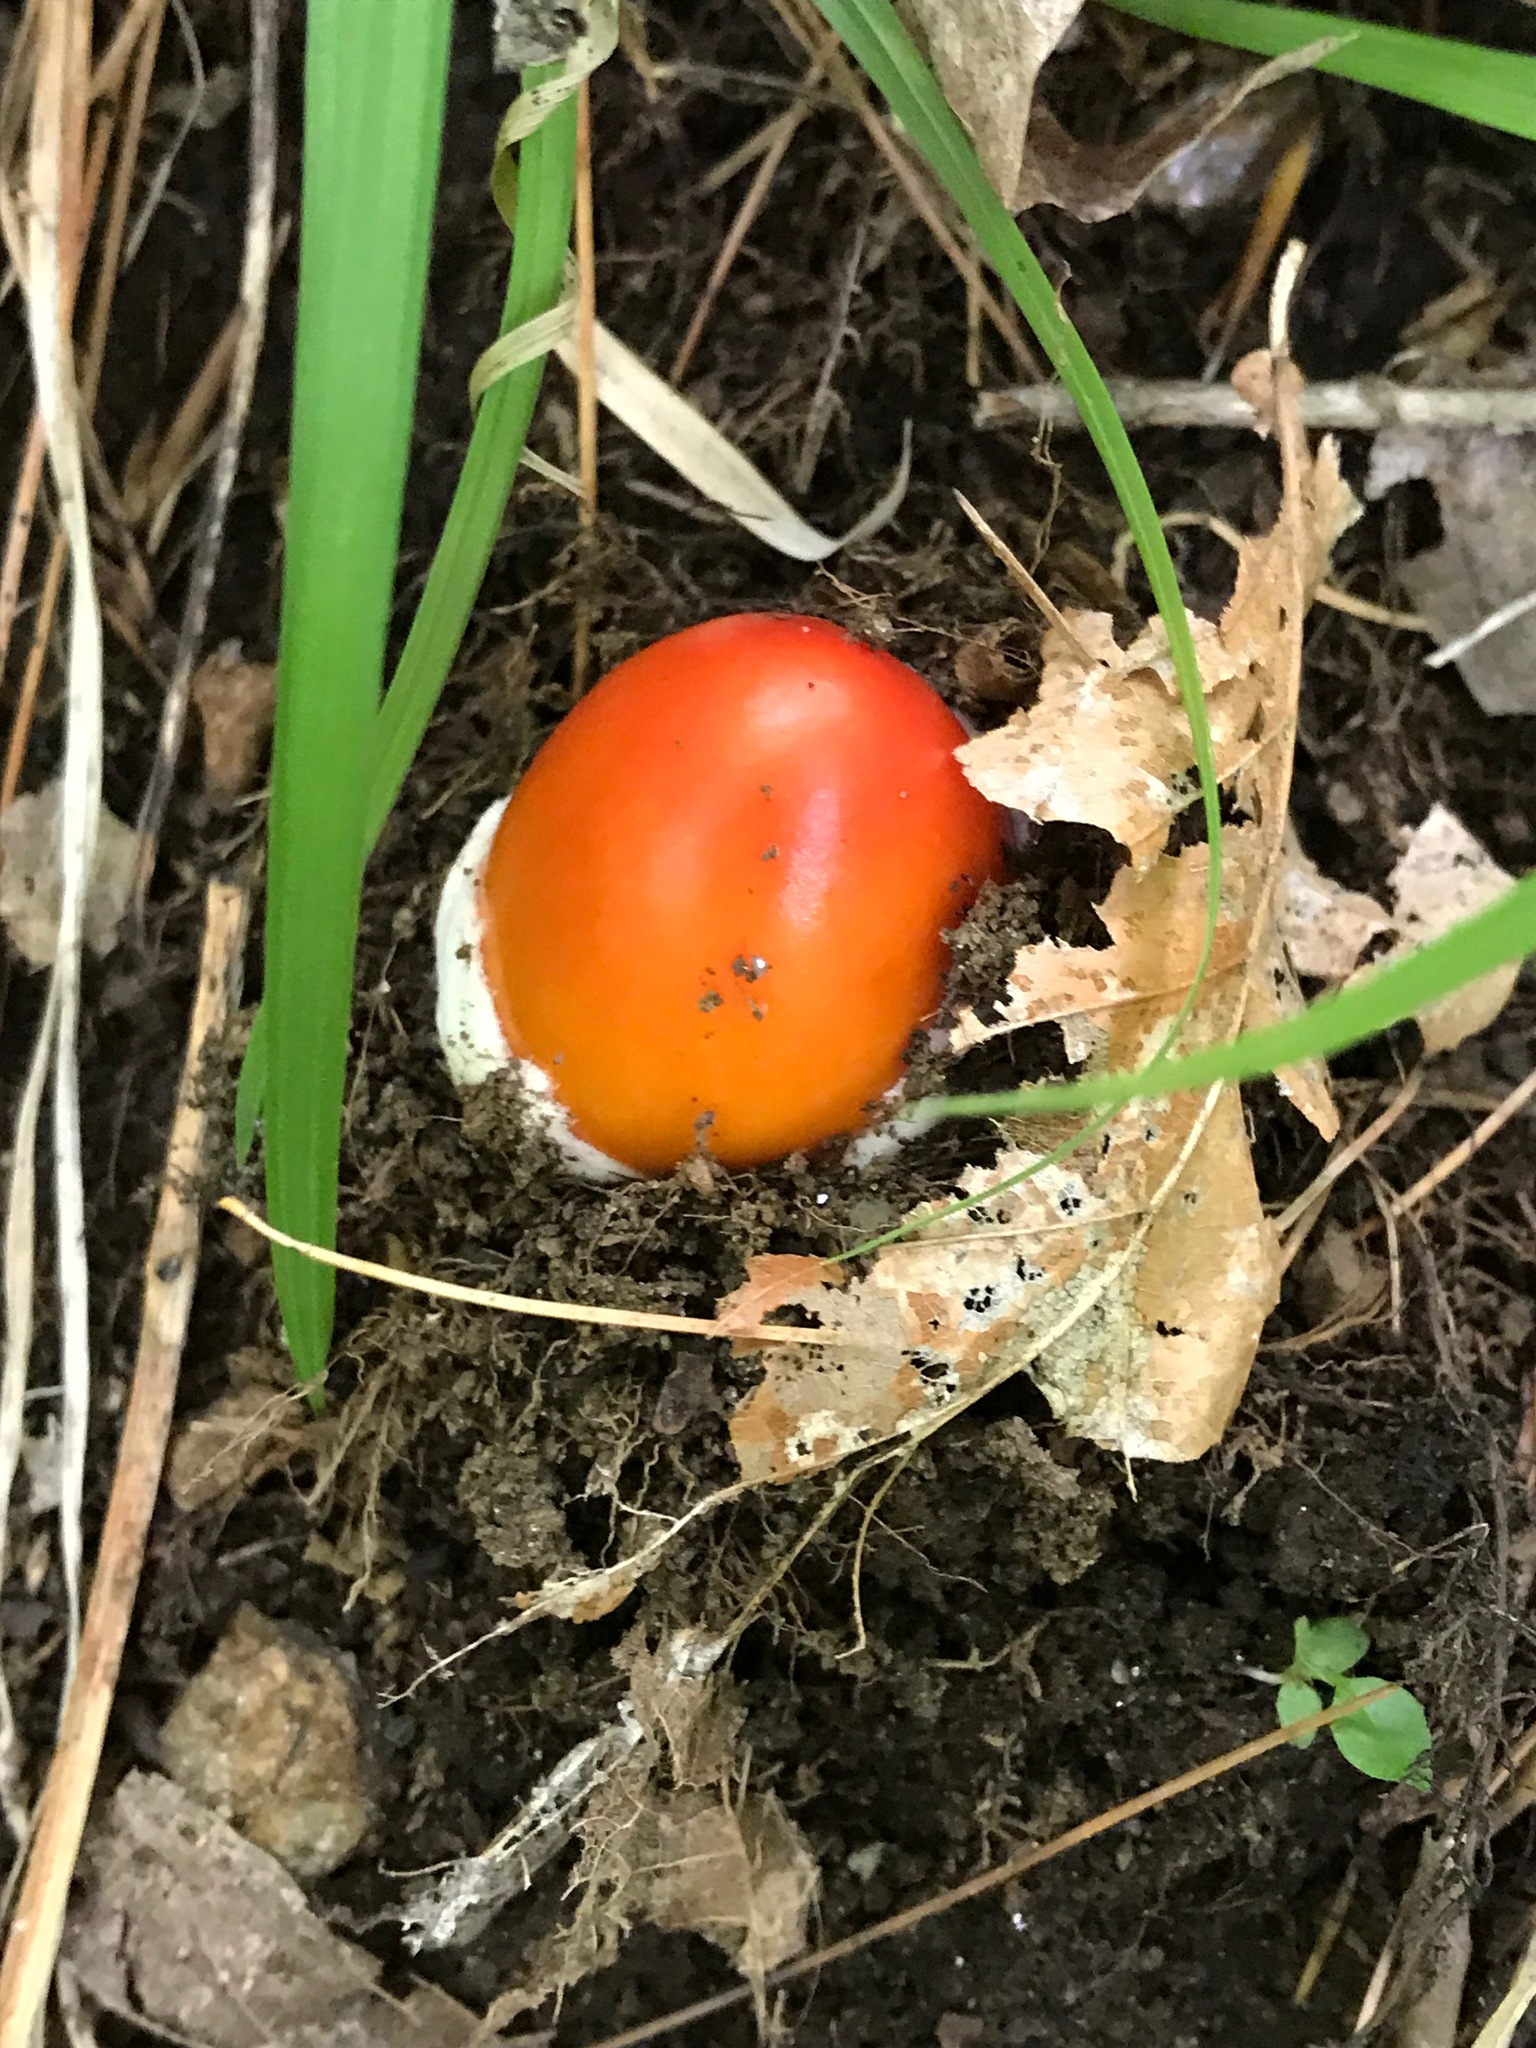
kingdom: Fungi
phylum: Basidiomycota
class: Agaricomycetes
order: Agaricales
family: Amanitaceae
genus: Amanita
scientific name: Amanita jacksonii
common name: Jackson's slender caesar
